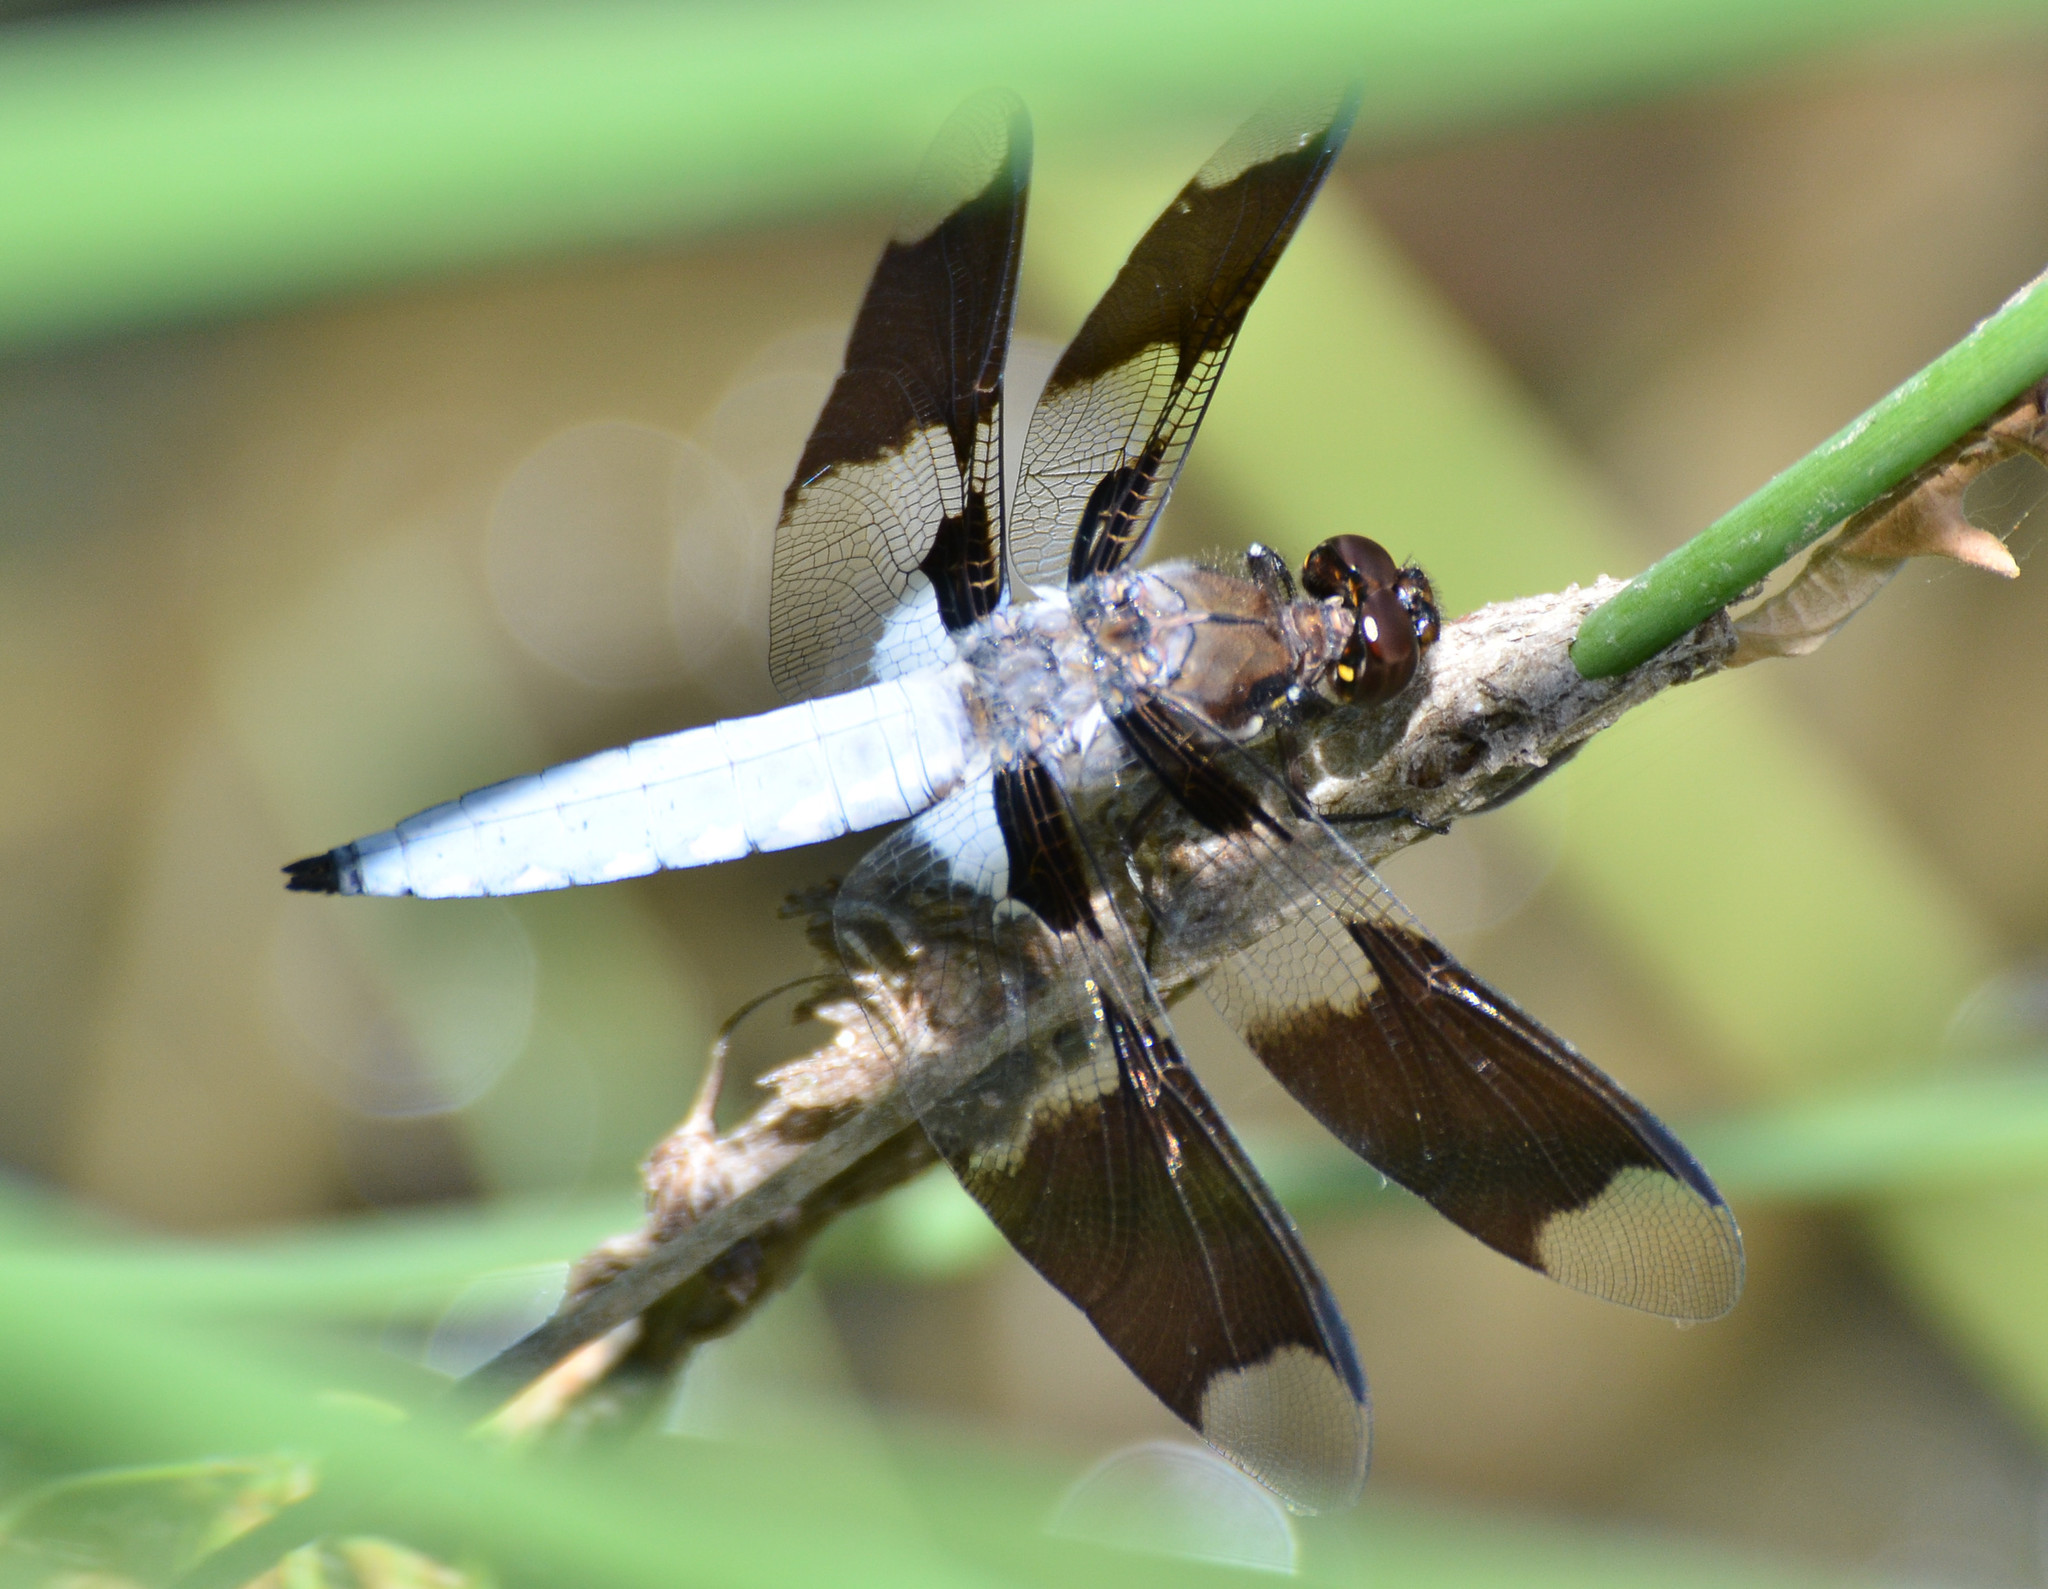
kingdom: Animalia
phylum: Arthropoda
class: Insecta
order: Odonata
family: Libellulidae
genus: Plathemis
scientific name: Plathemis lydia
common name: Common whitetail
